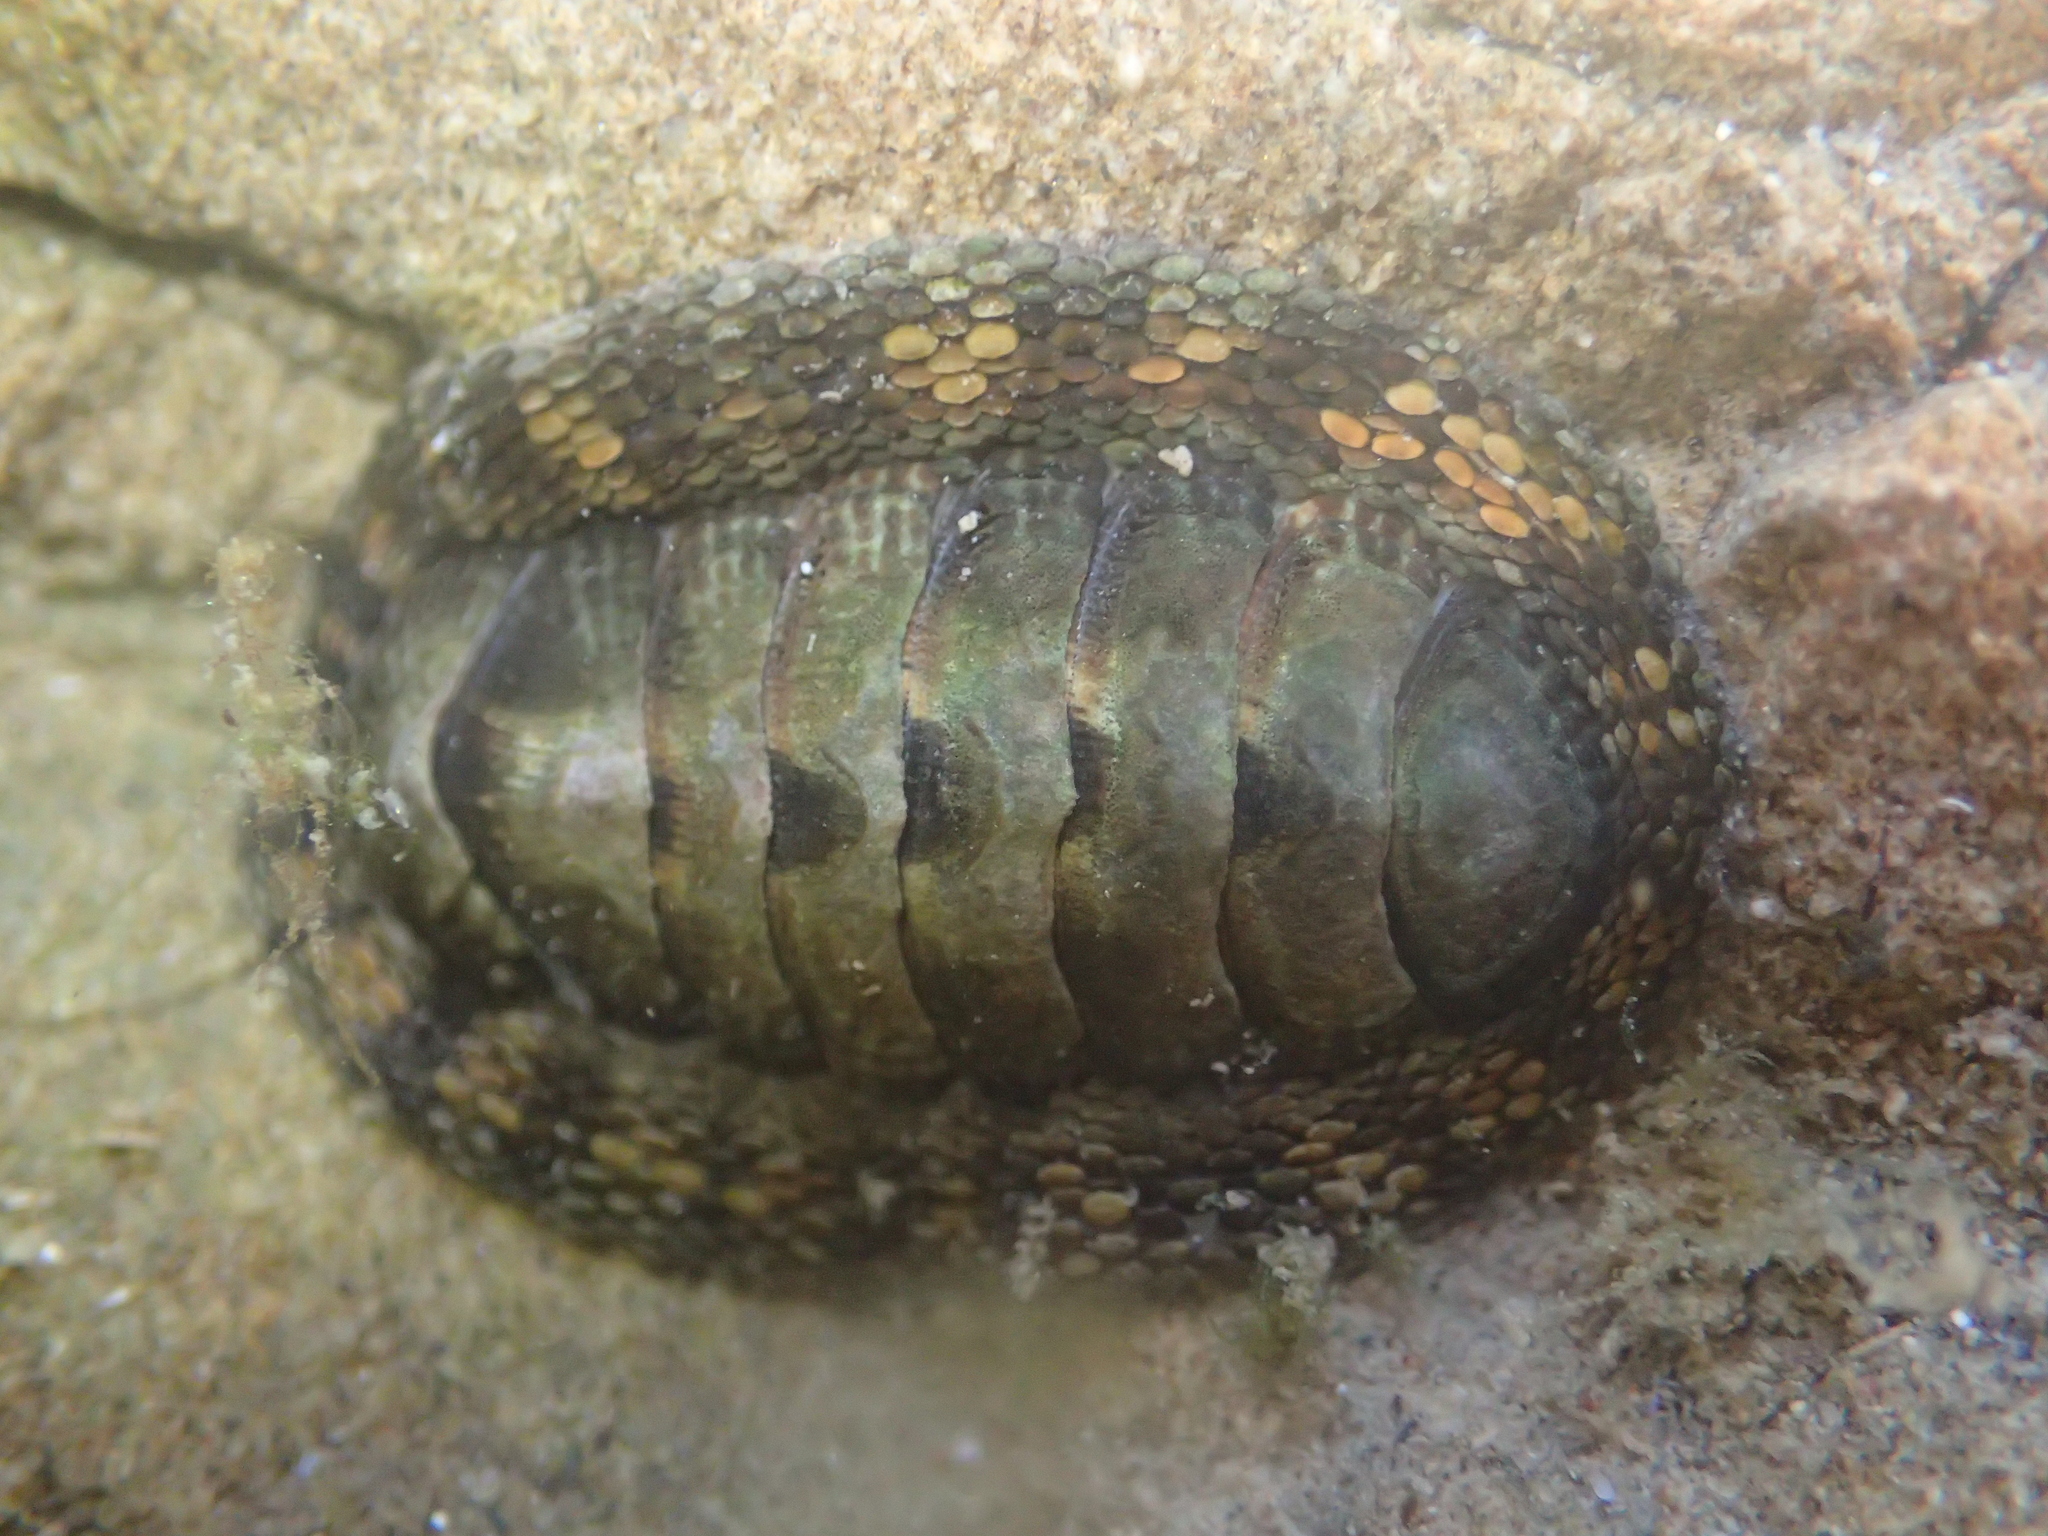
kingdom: Animalia
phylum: Mollusca
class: Polyplacophora
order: Chitonida
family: Chitonidae
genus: Sypharochiton
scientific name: Sypharochiton pelliserpentis
